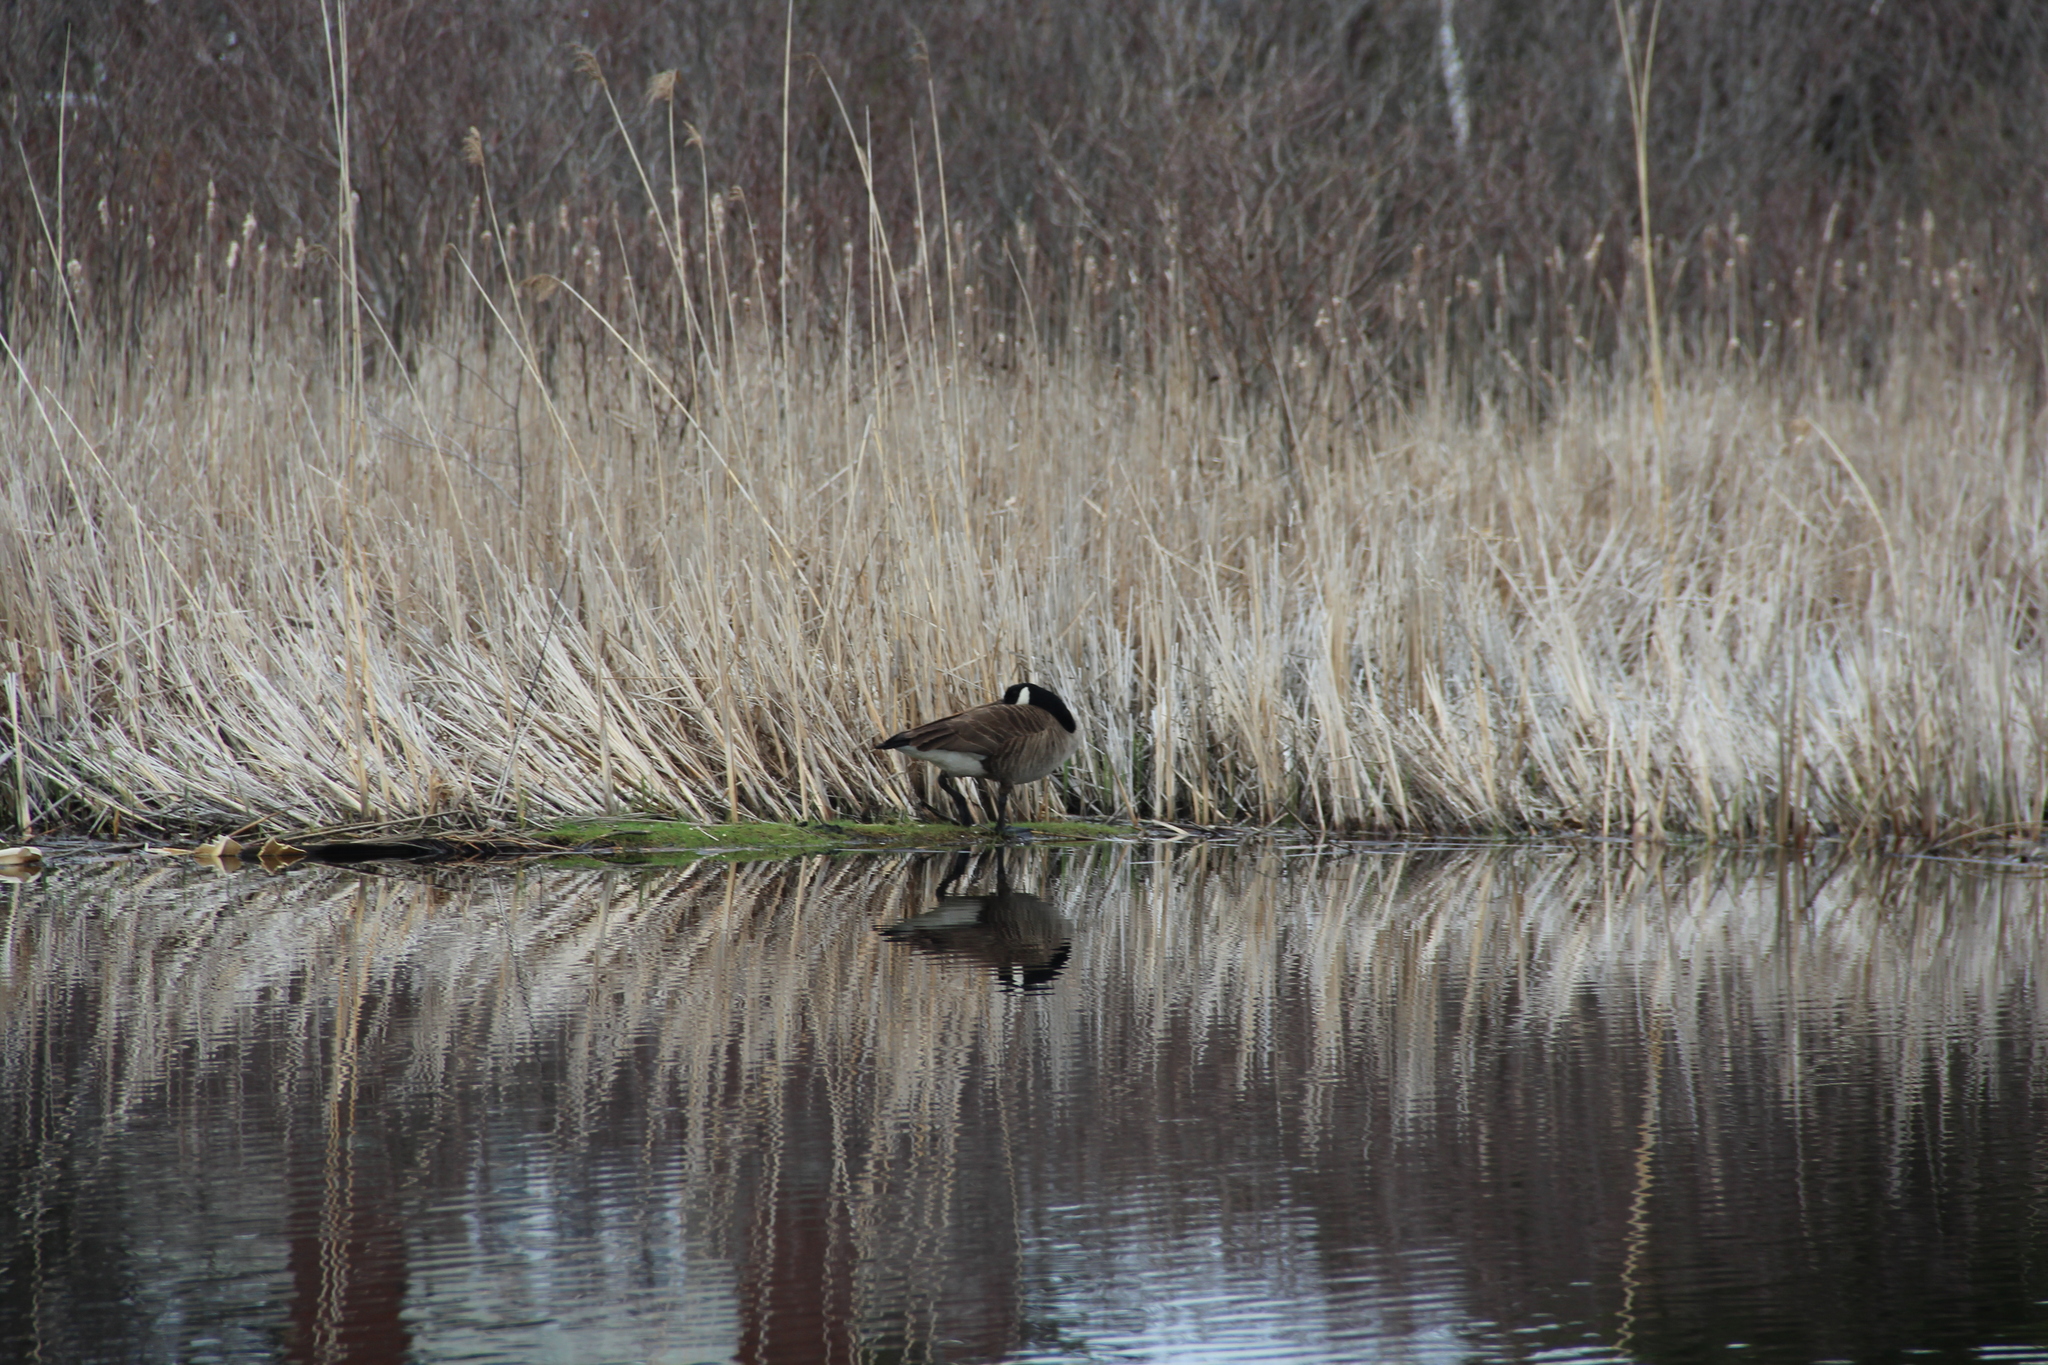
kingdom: Animalia
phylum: Chordata
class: Aves
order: Anseriformes
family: Anatidae
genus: Branta
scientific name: Branta canadensis
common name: Canada goose
